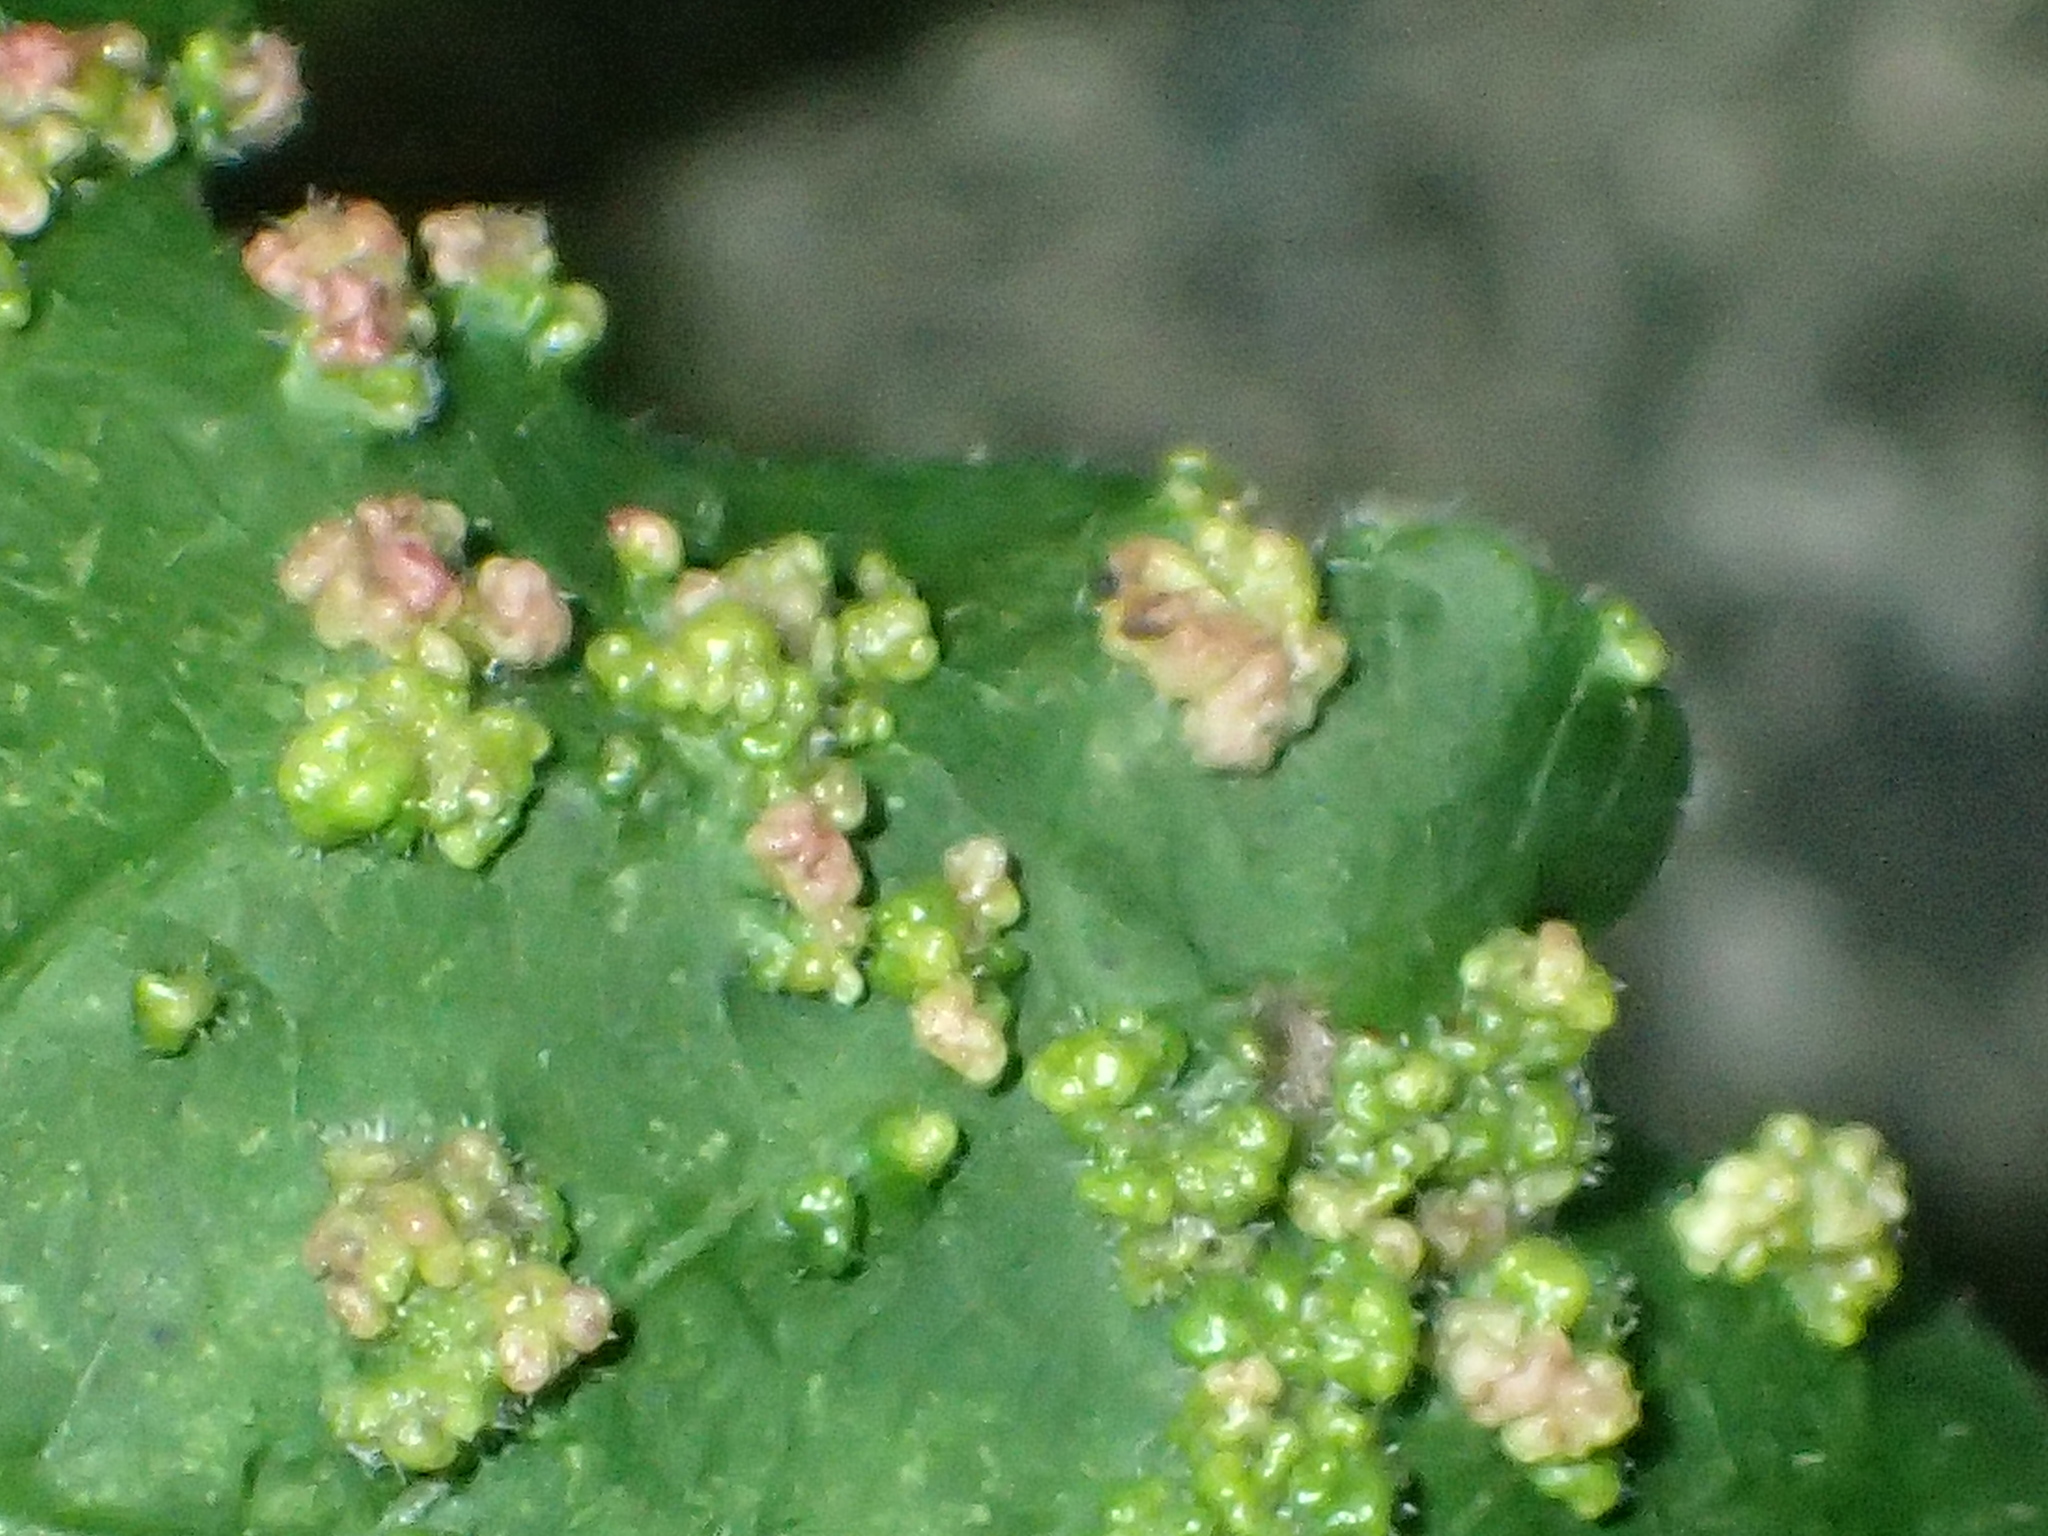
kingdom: Animalia
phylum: Arthropoda
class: Arachnida
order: Trombidiformes
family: Eriophyidae
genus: Aculops
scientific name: Aculops
